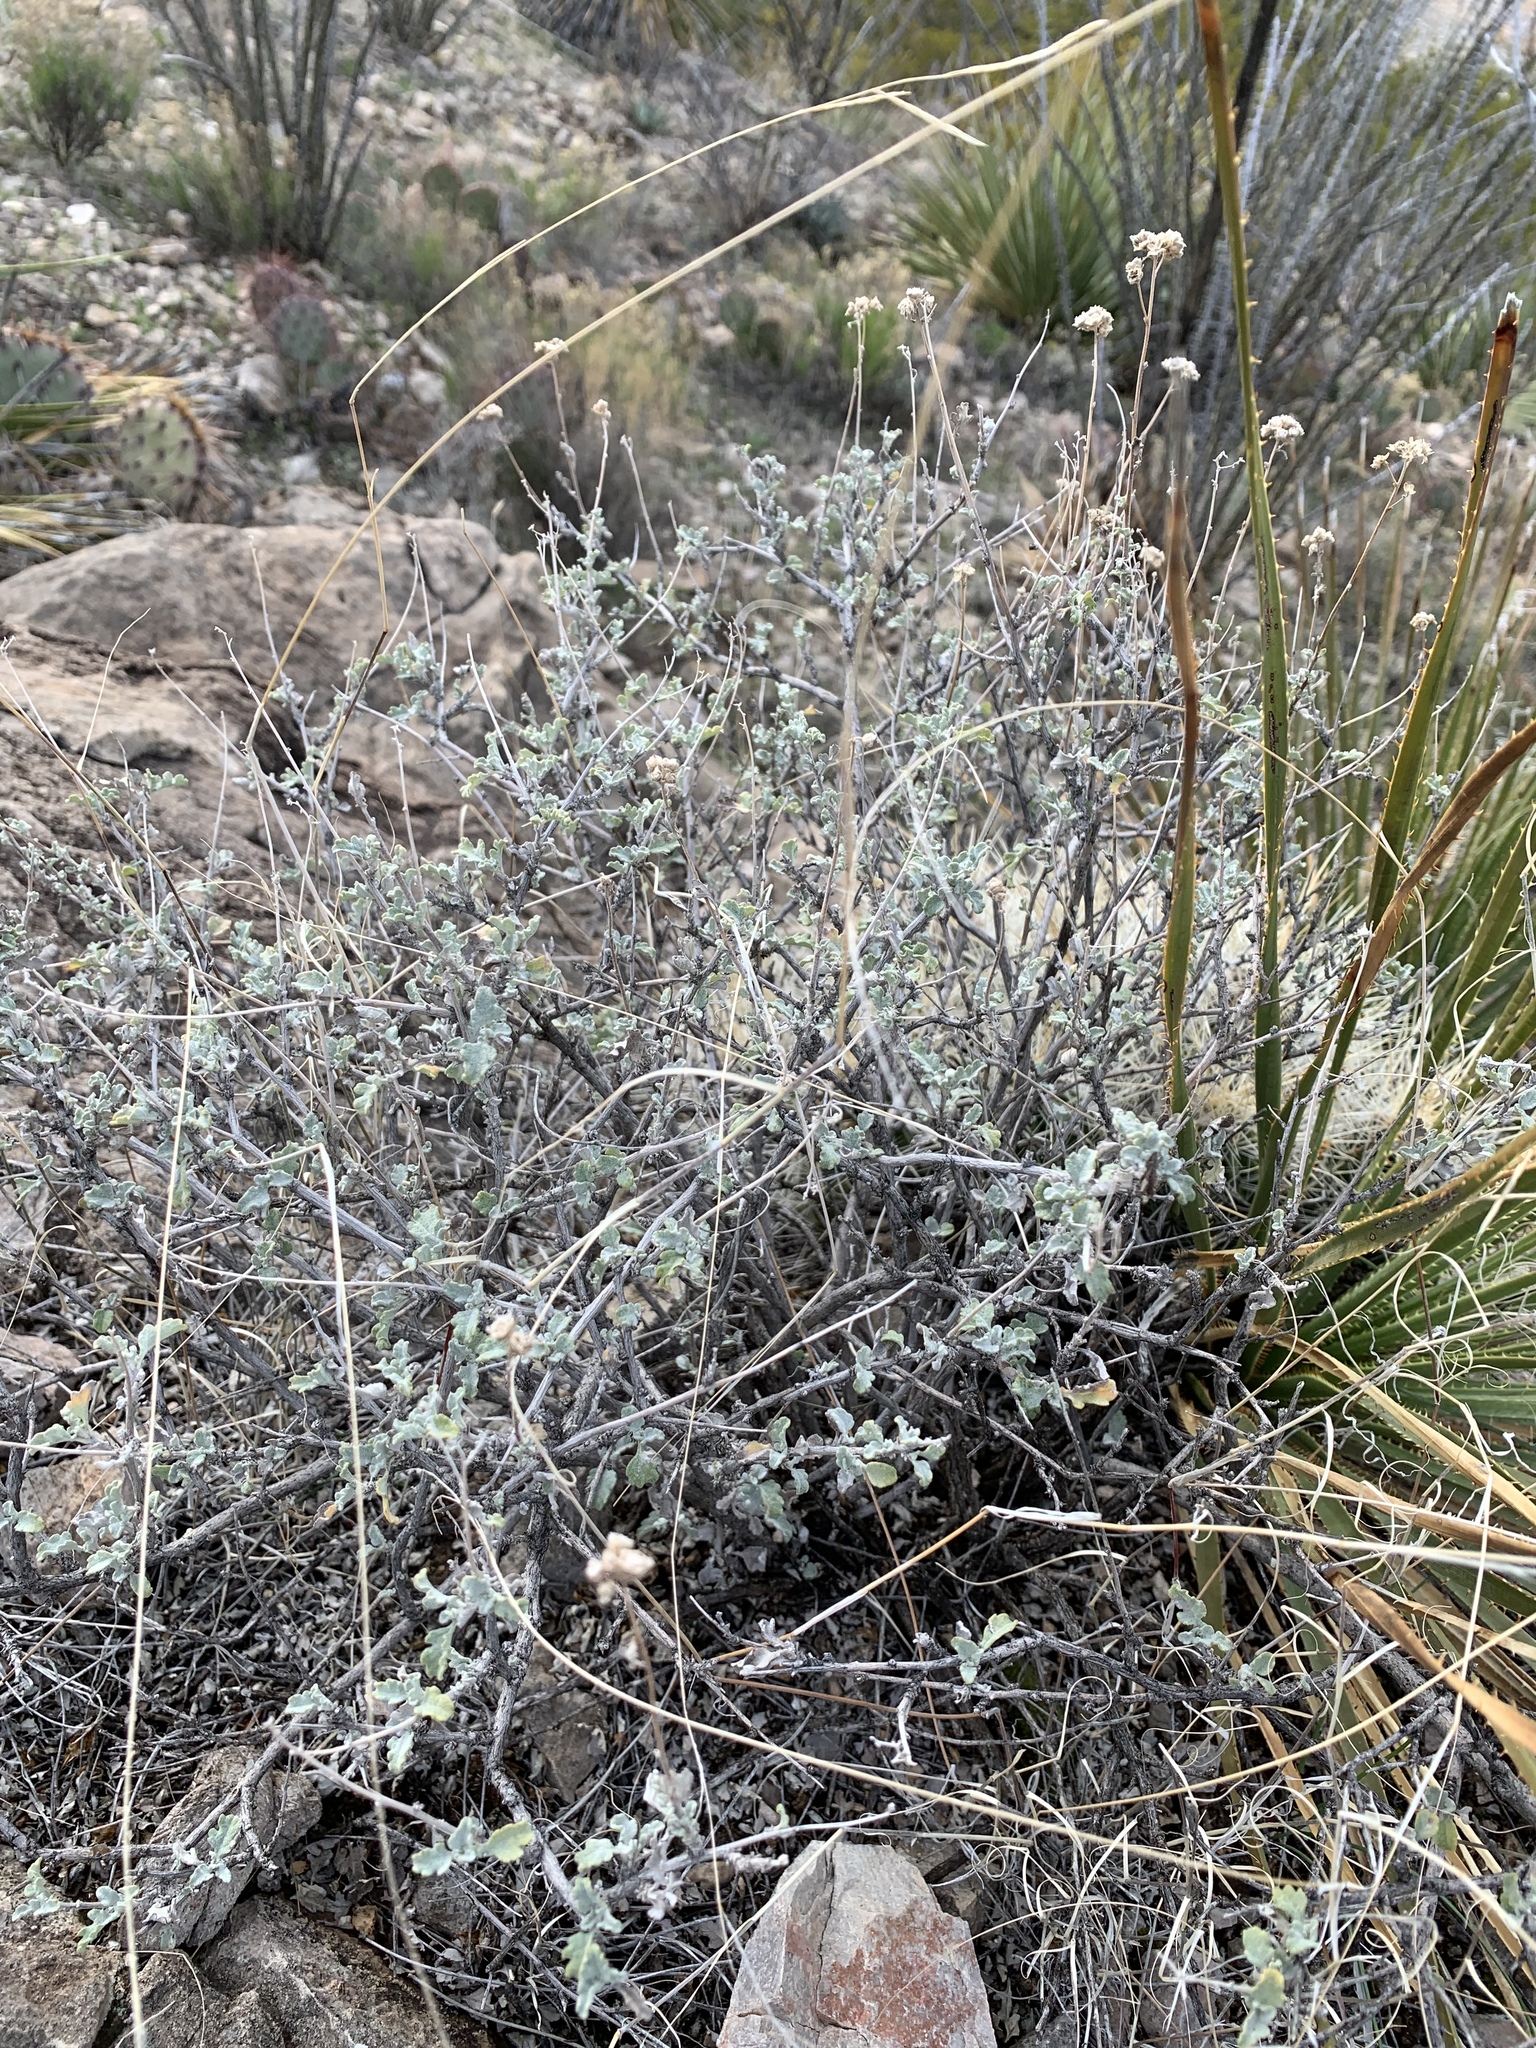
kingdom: Plantae
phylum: Tracheophyta
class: Magnoliopsida
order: Asterales
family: Asteraceae
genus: Parthenium
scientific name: Parthenium incanum
